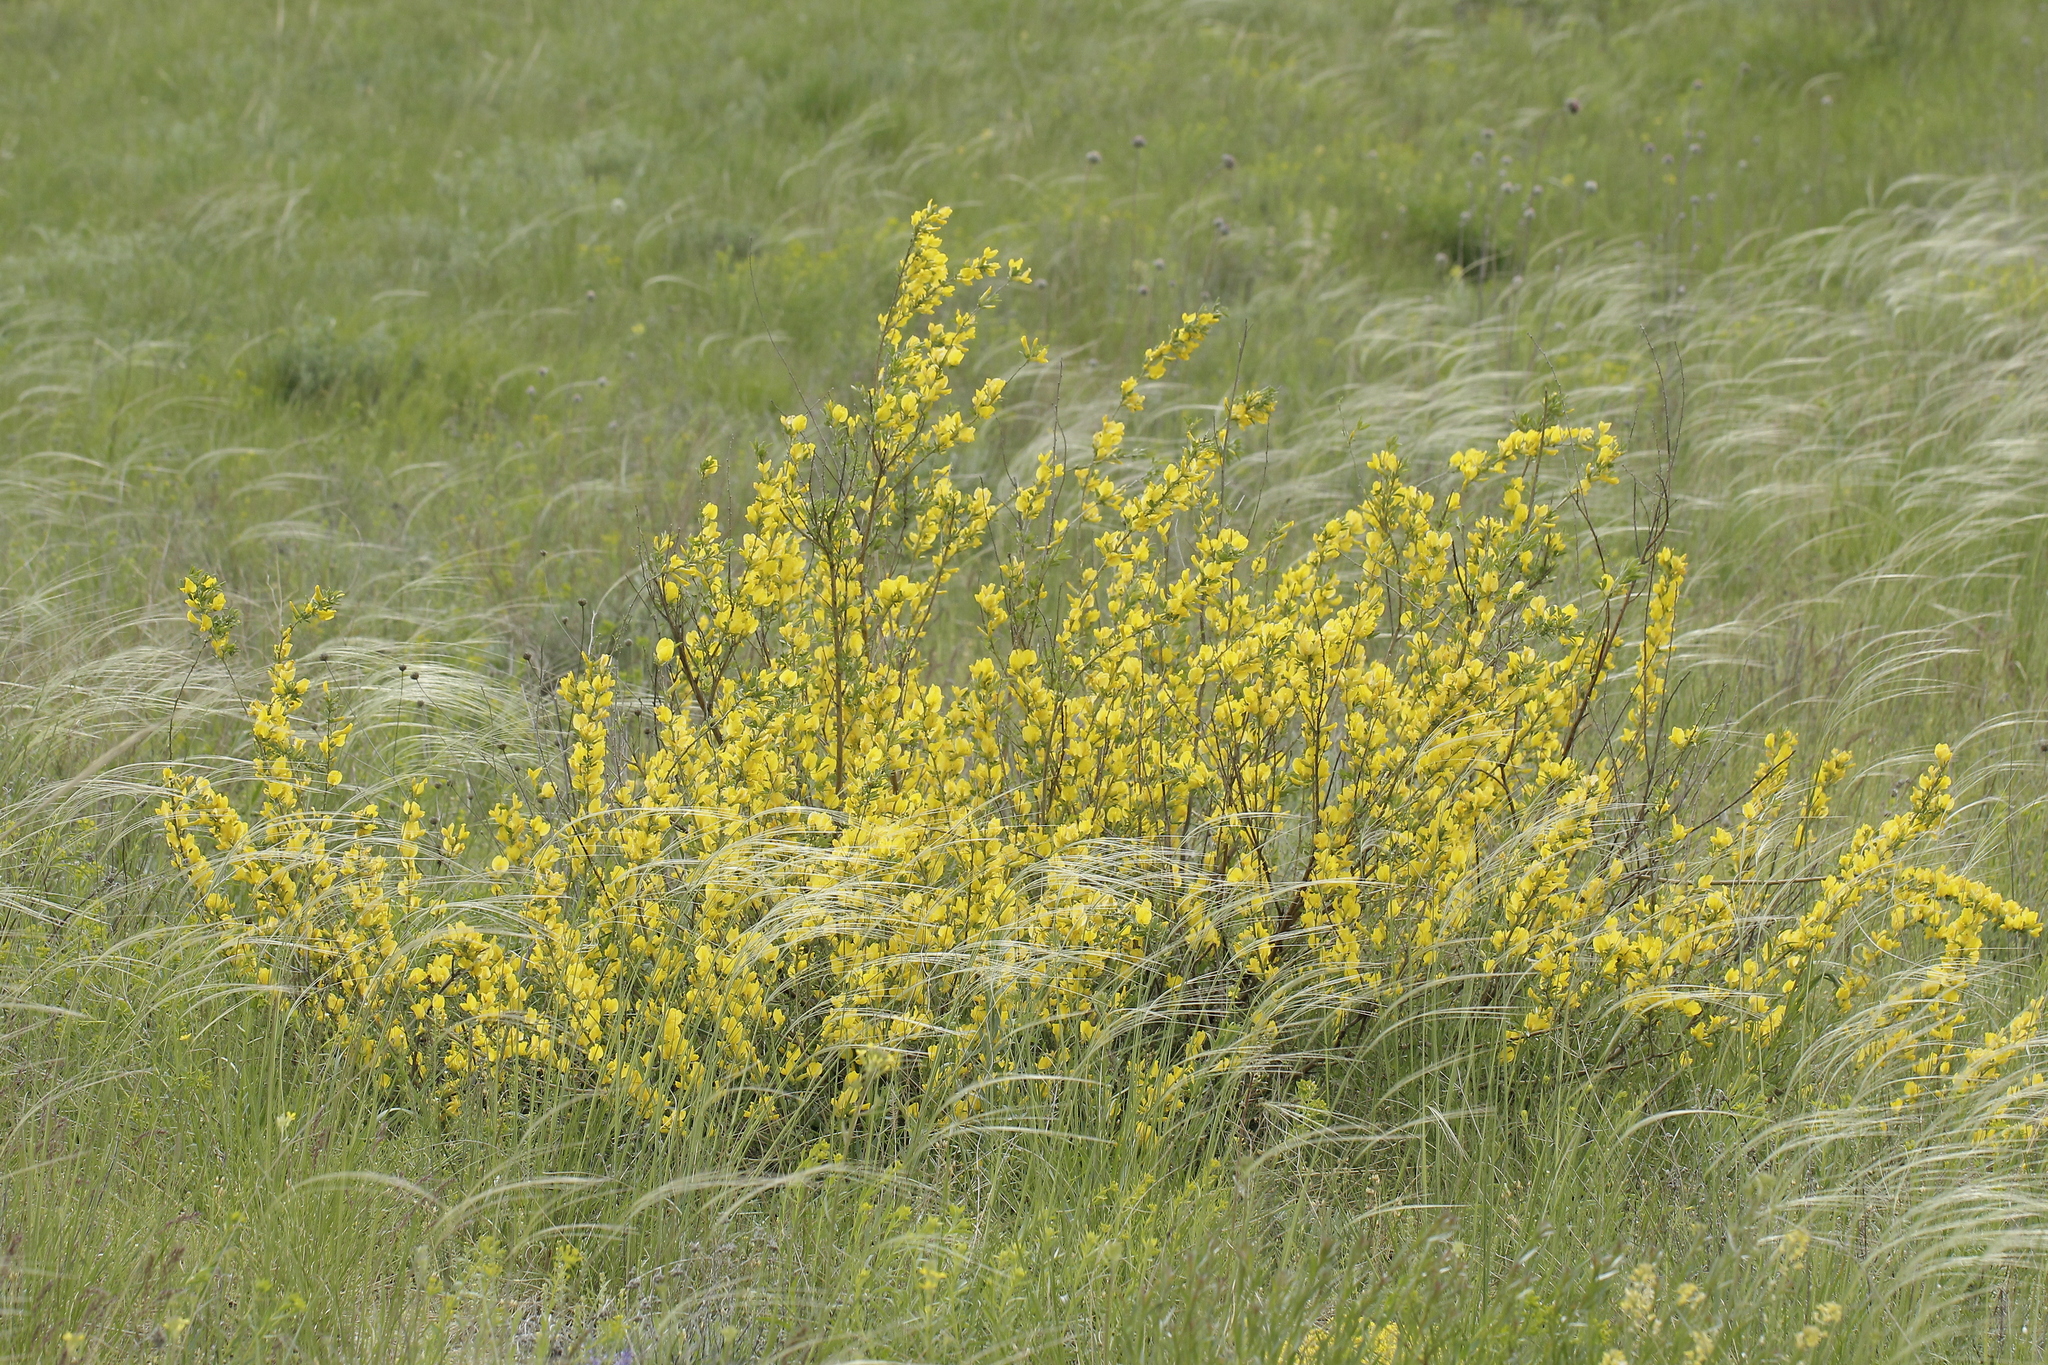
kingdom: Plantae
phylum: Tracheophyta
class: Magnoliopsida
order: Fabales
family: Fabaceae
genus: Chamaecytisus
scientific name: Chamaecytisus ruthenicus
